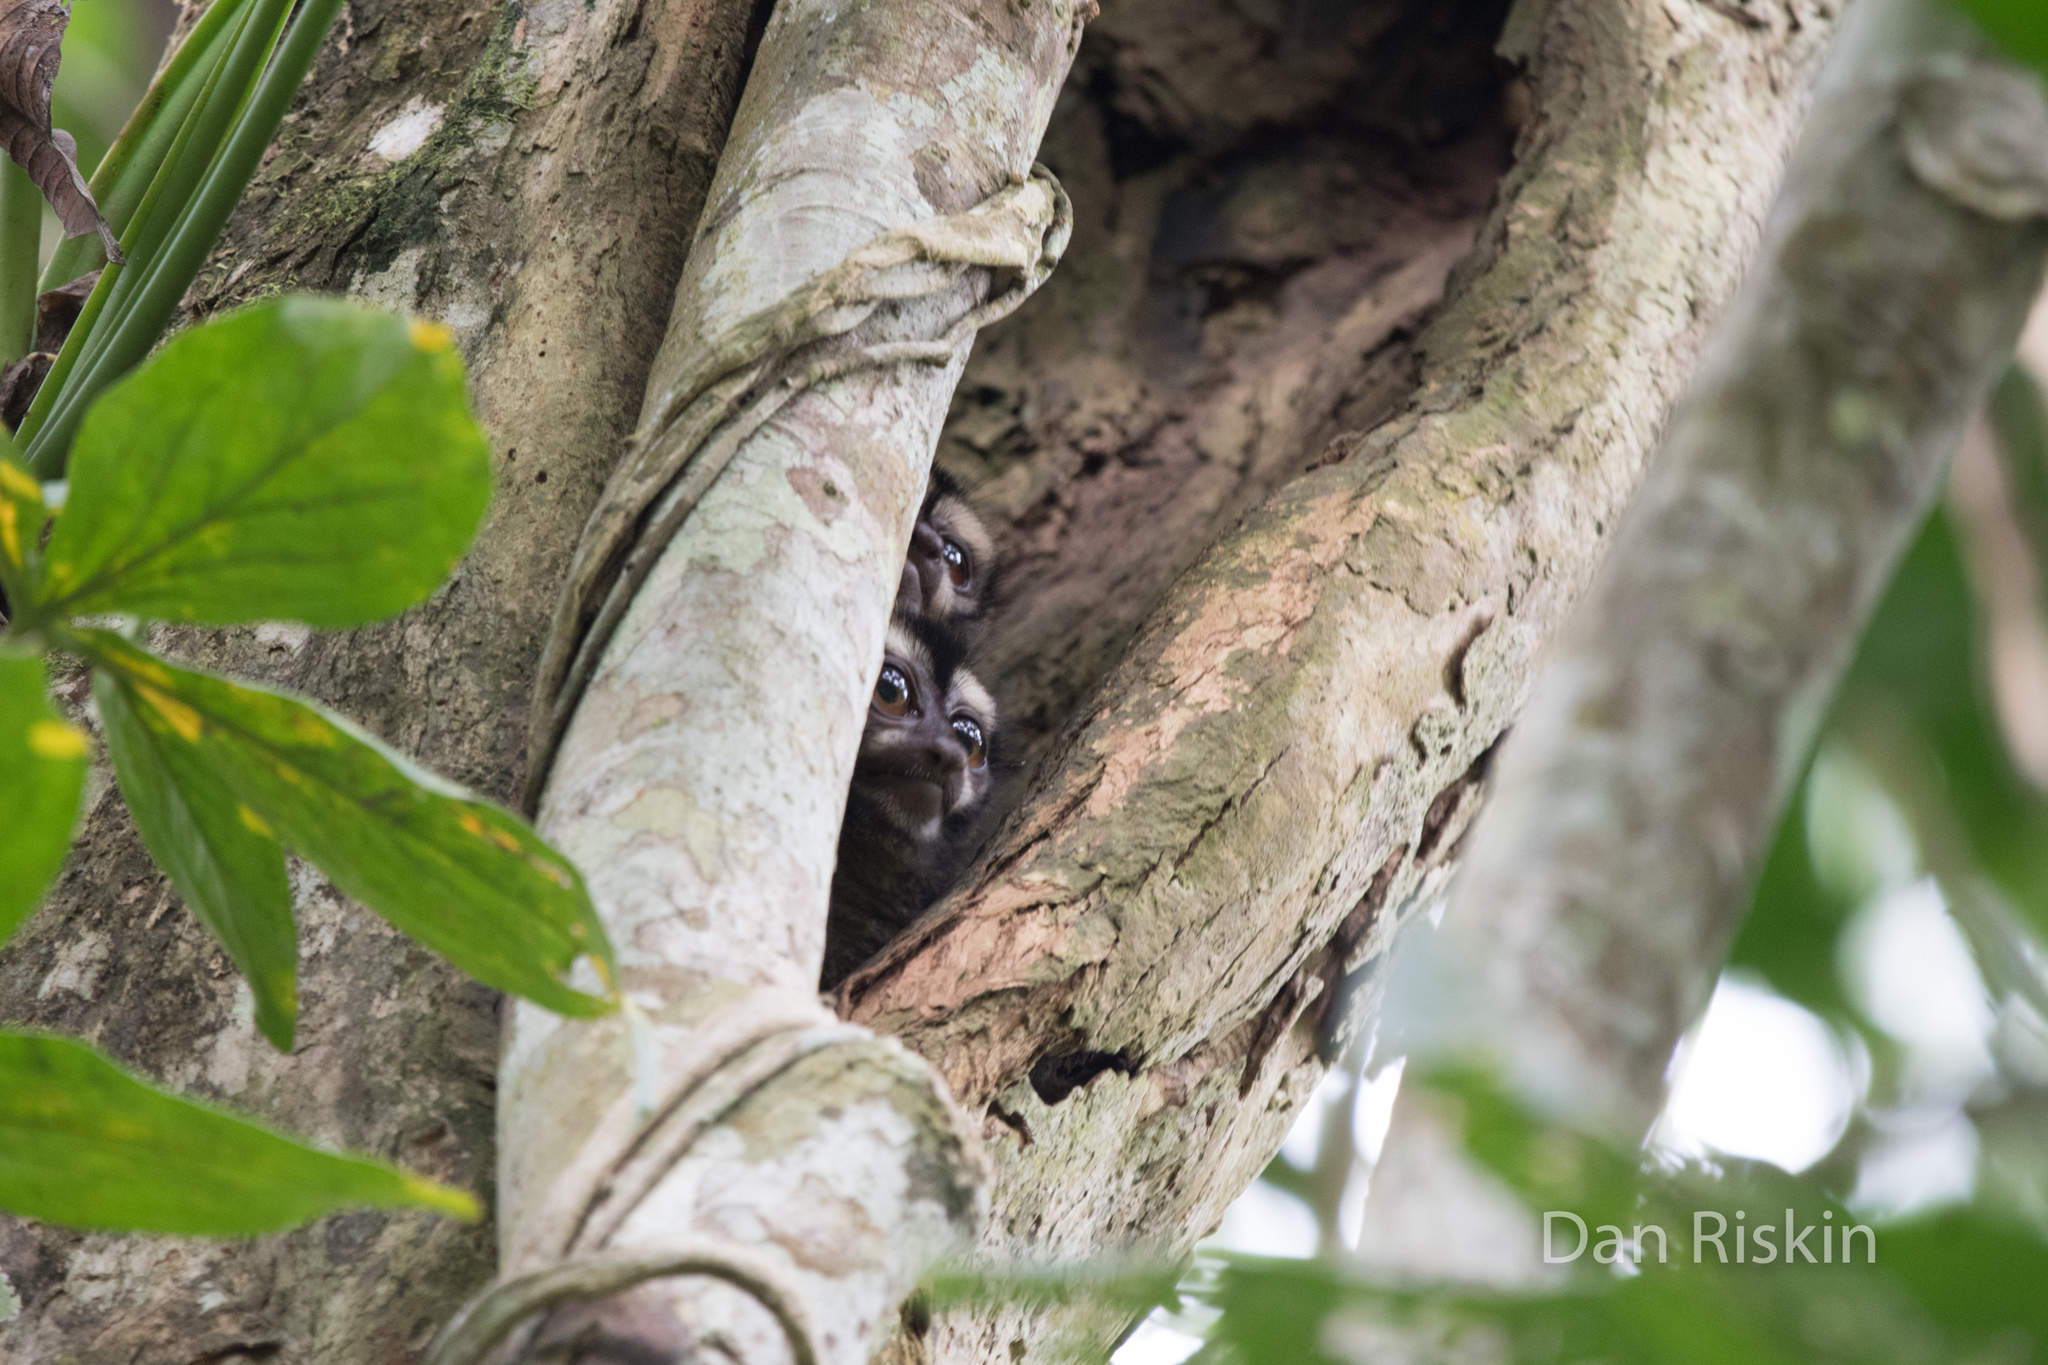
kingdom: Animalia
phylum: Chordata
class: Mammalia
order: Primates
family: Aotidae
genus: Aotus
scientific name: Aotus zonalis
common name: Panamanian night monkey
